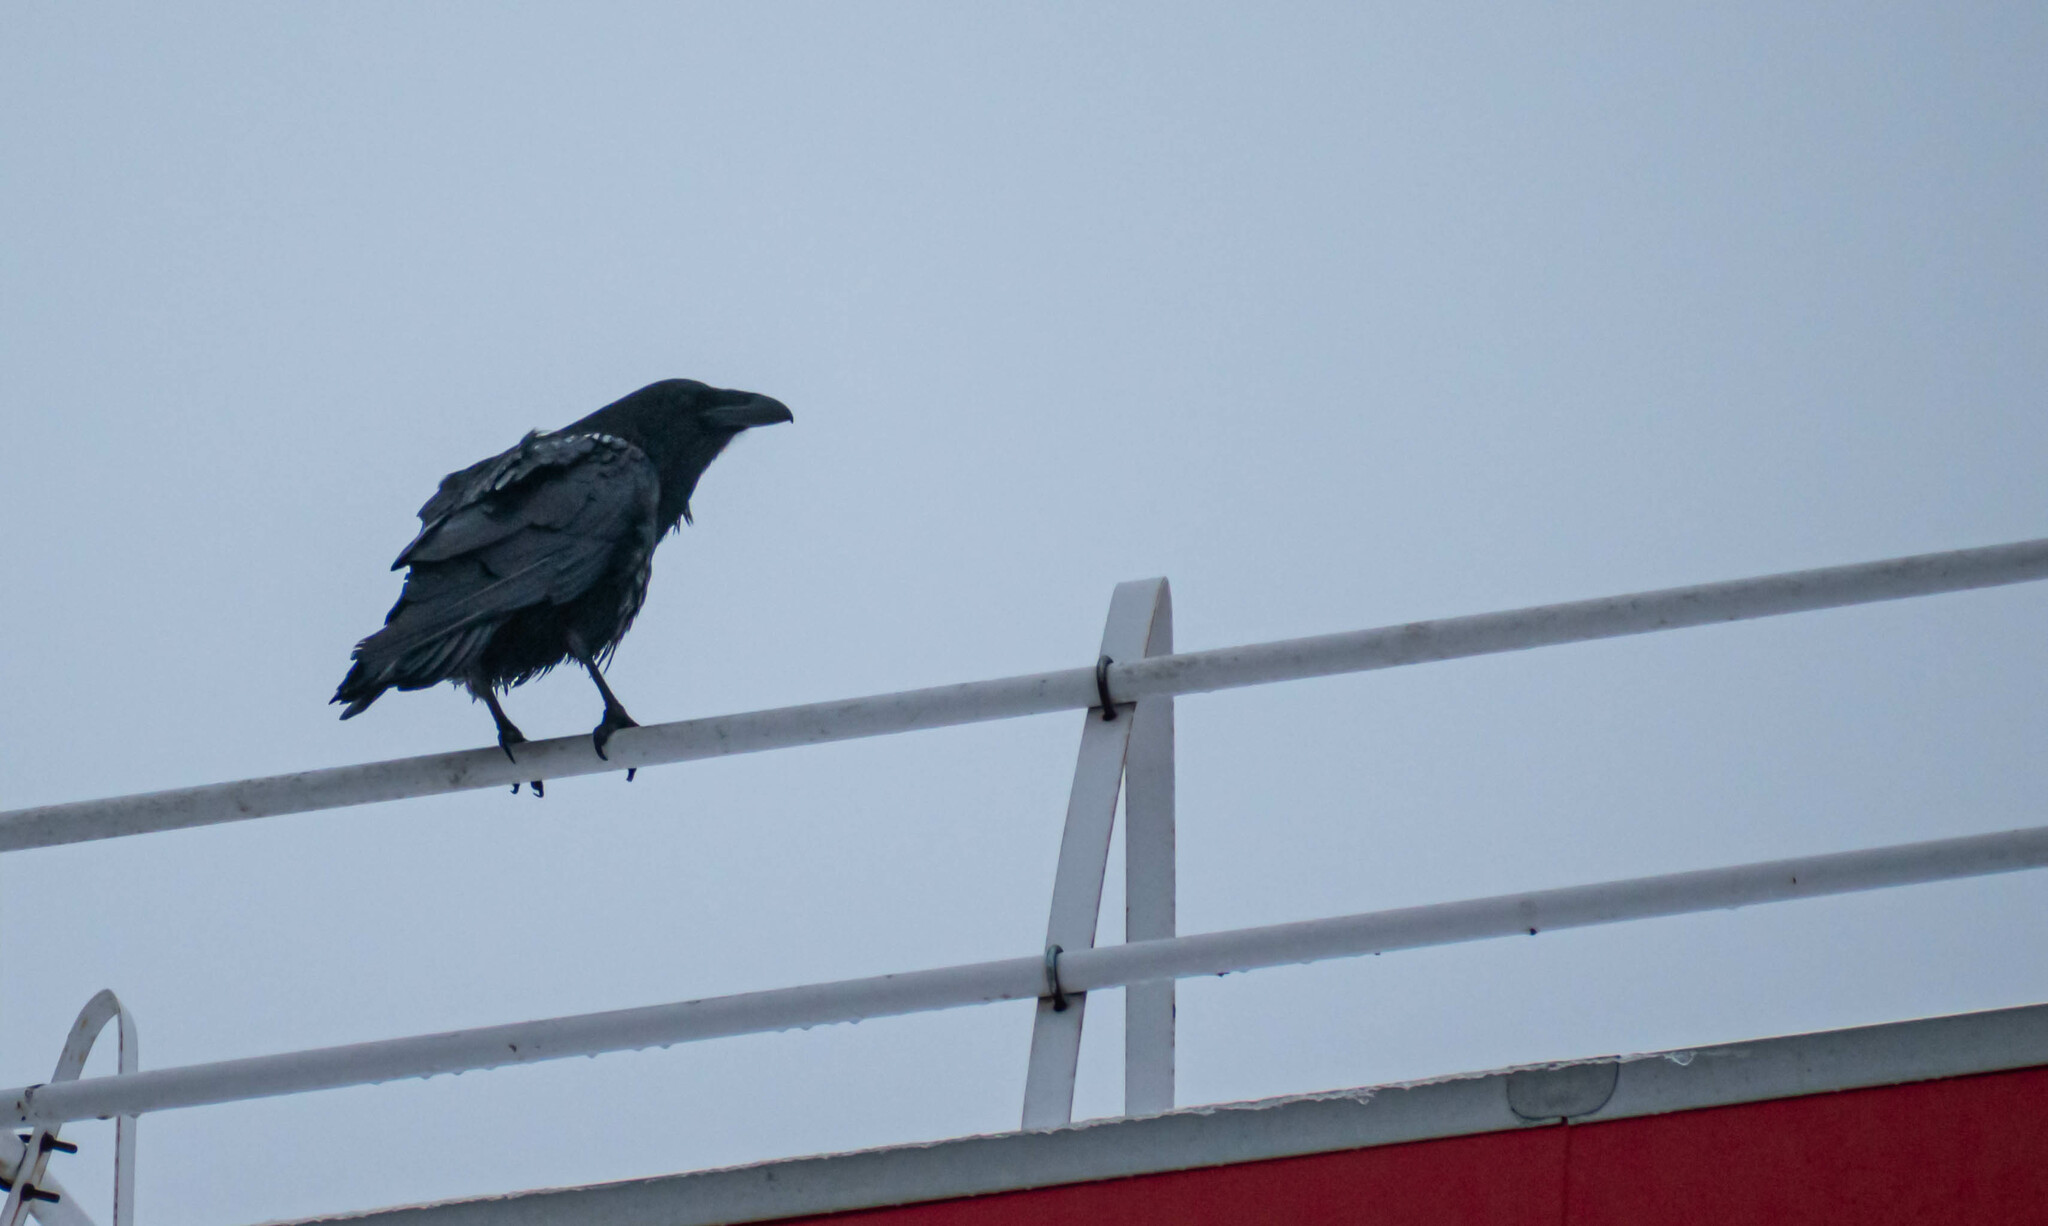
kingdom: Animalia
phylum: Chordata
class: Aves
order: Passeriformes
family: Corvidae
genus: Corvus
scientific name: Corvus corax
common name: Common raven
